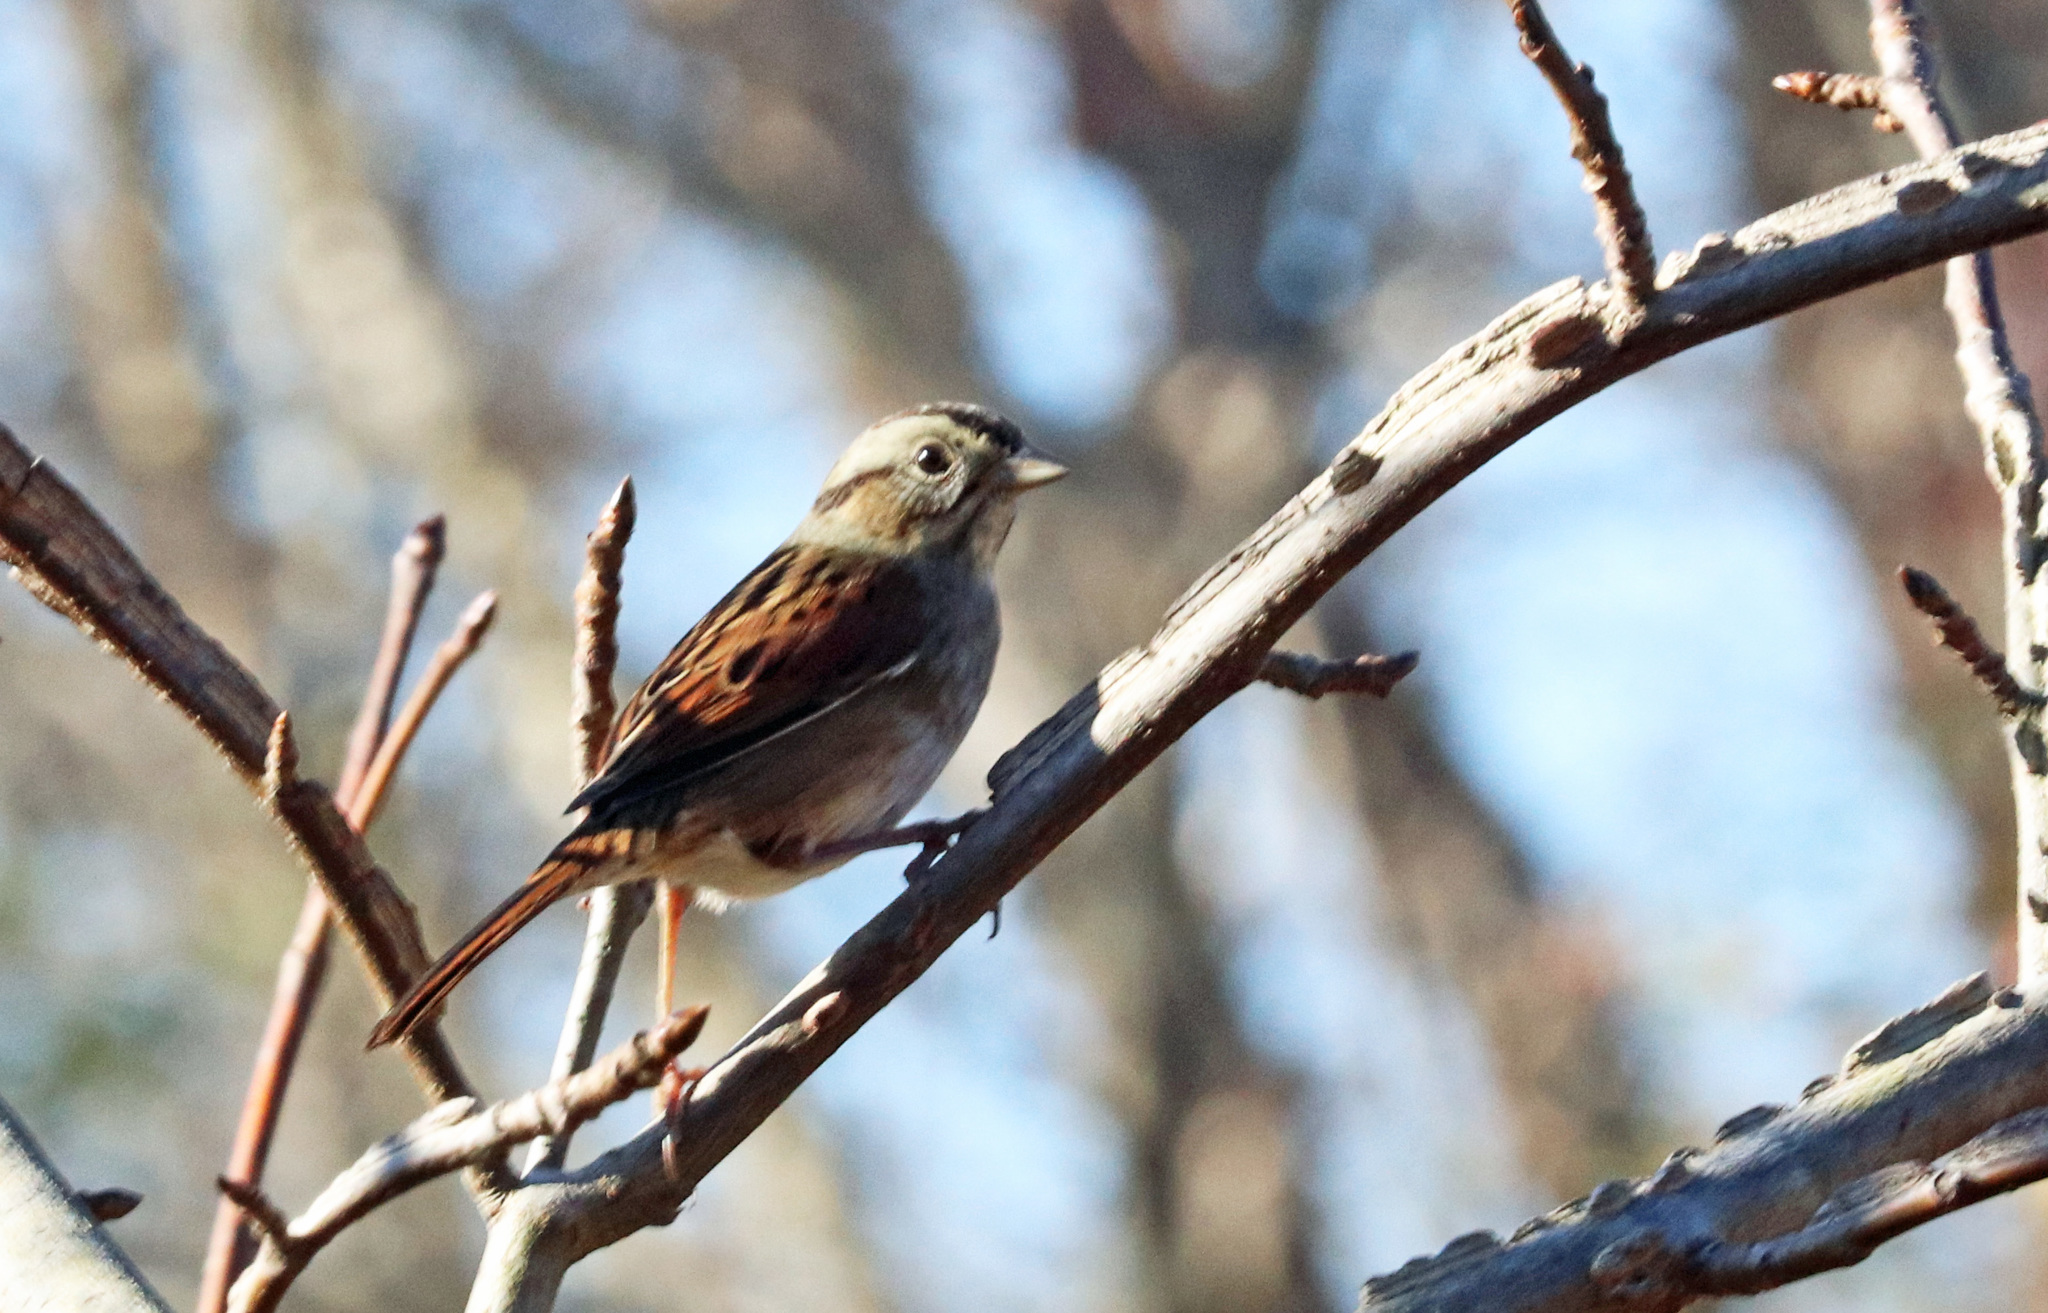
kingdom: Animalia
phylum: Chordata
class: Aves
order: Passeriformes
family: Passerellidae
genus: Melospiza
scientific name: Melospiza georgiana
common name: Swamp sparrow
